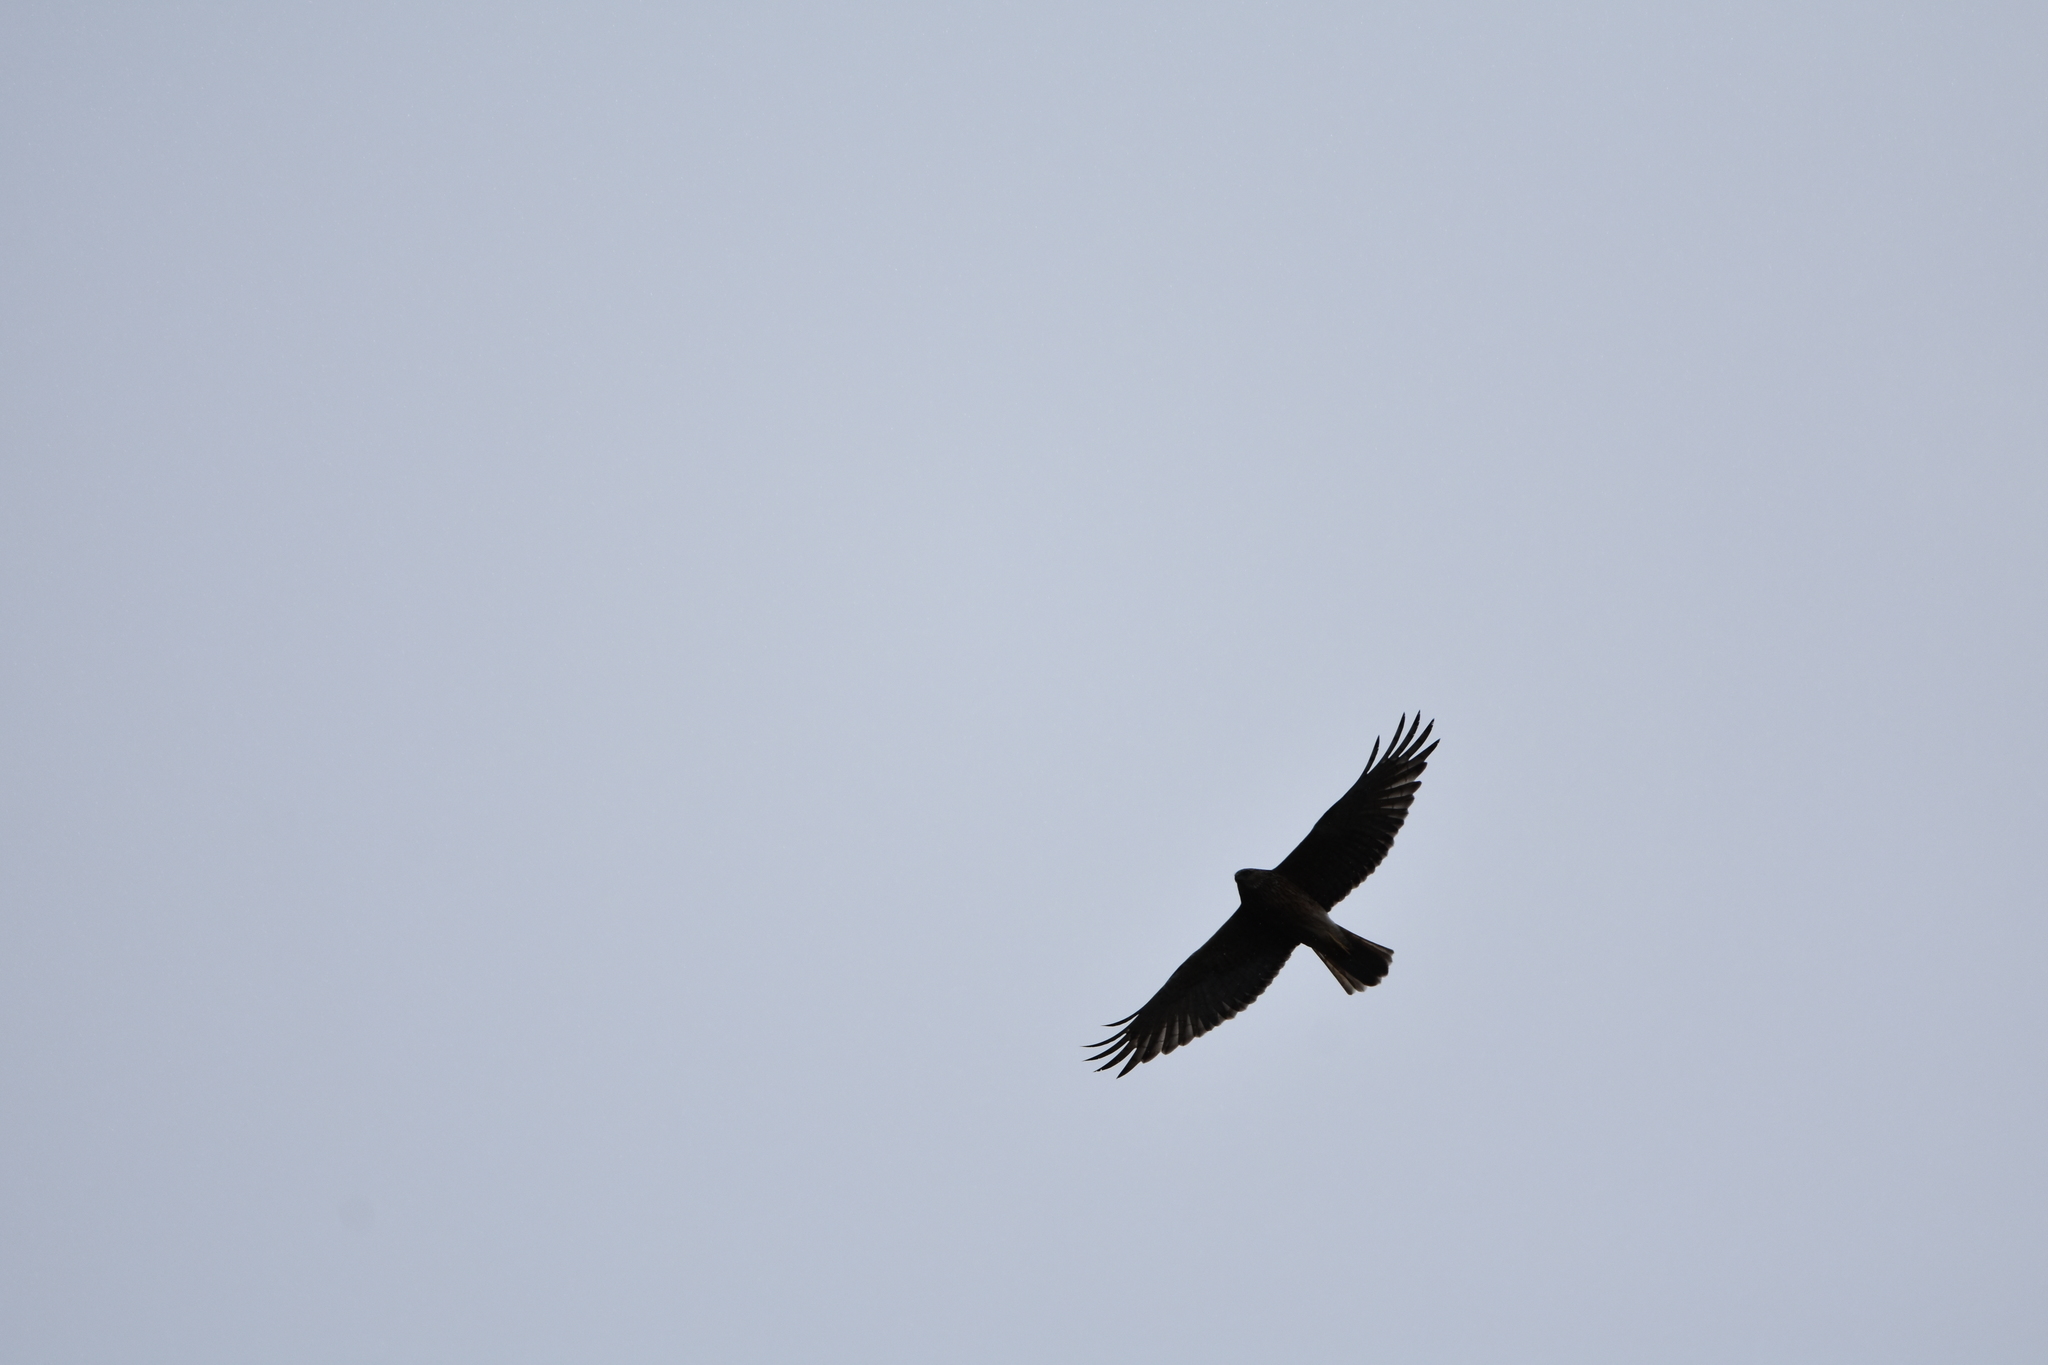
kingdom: Animalia
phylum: Chordata
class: Aves
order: Accipitriformes
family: Accipitridae
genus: Circus
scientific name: Circus approximans
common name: Swamp harrier
